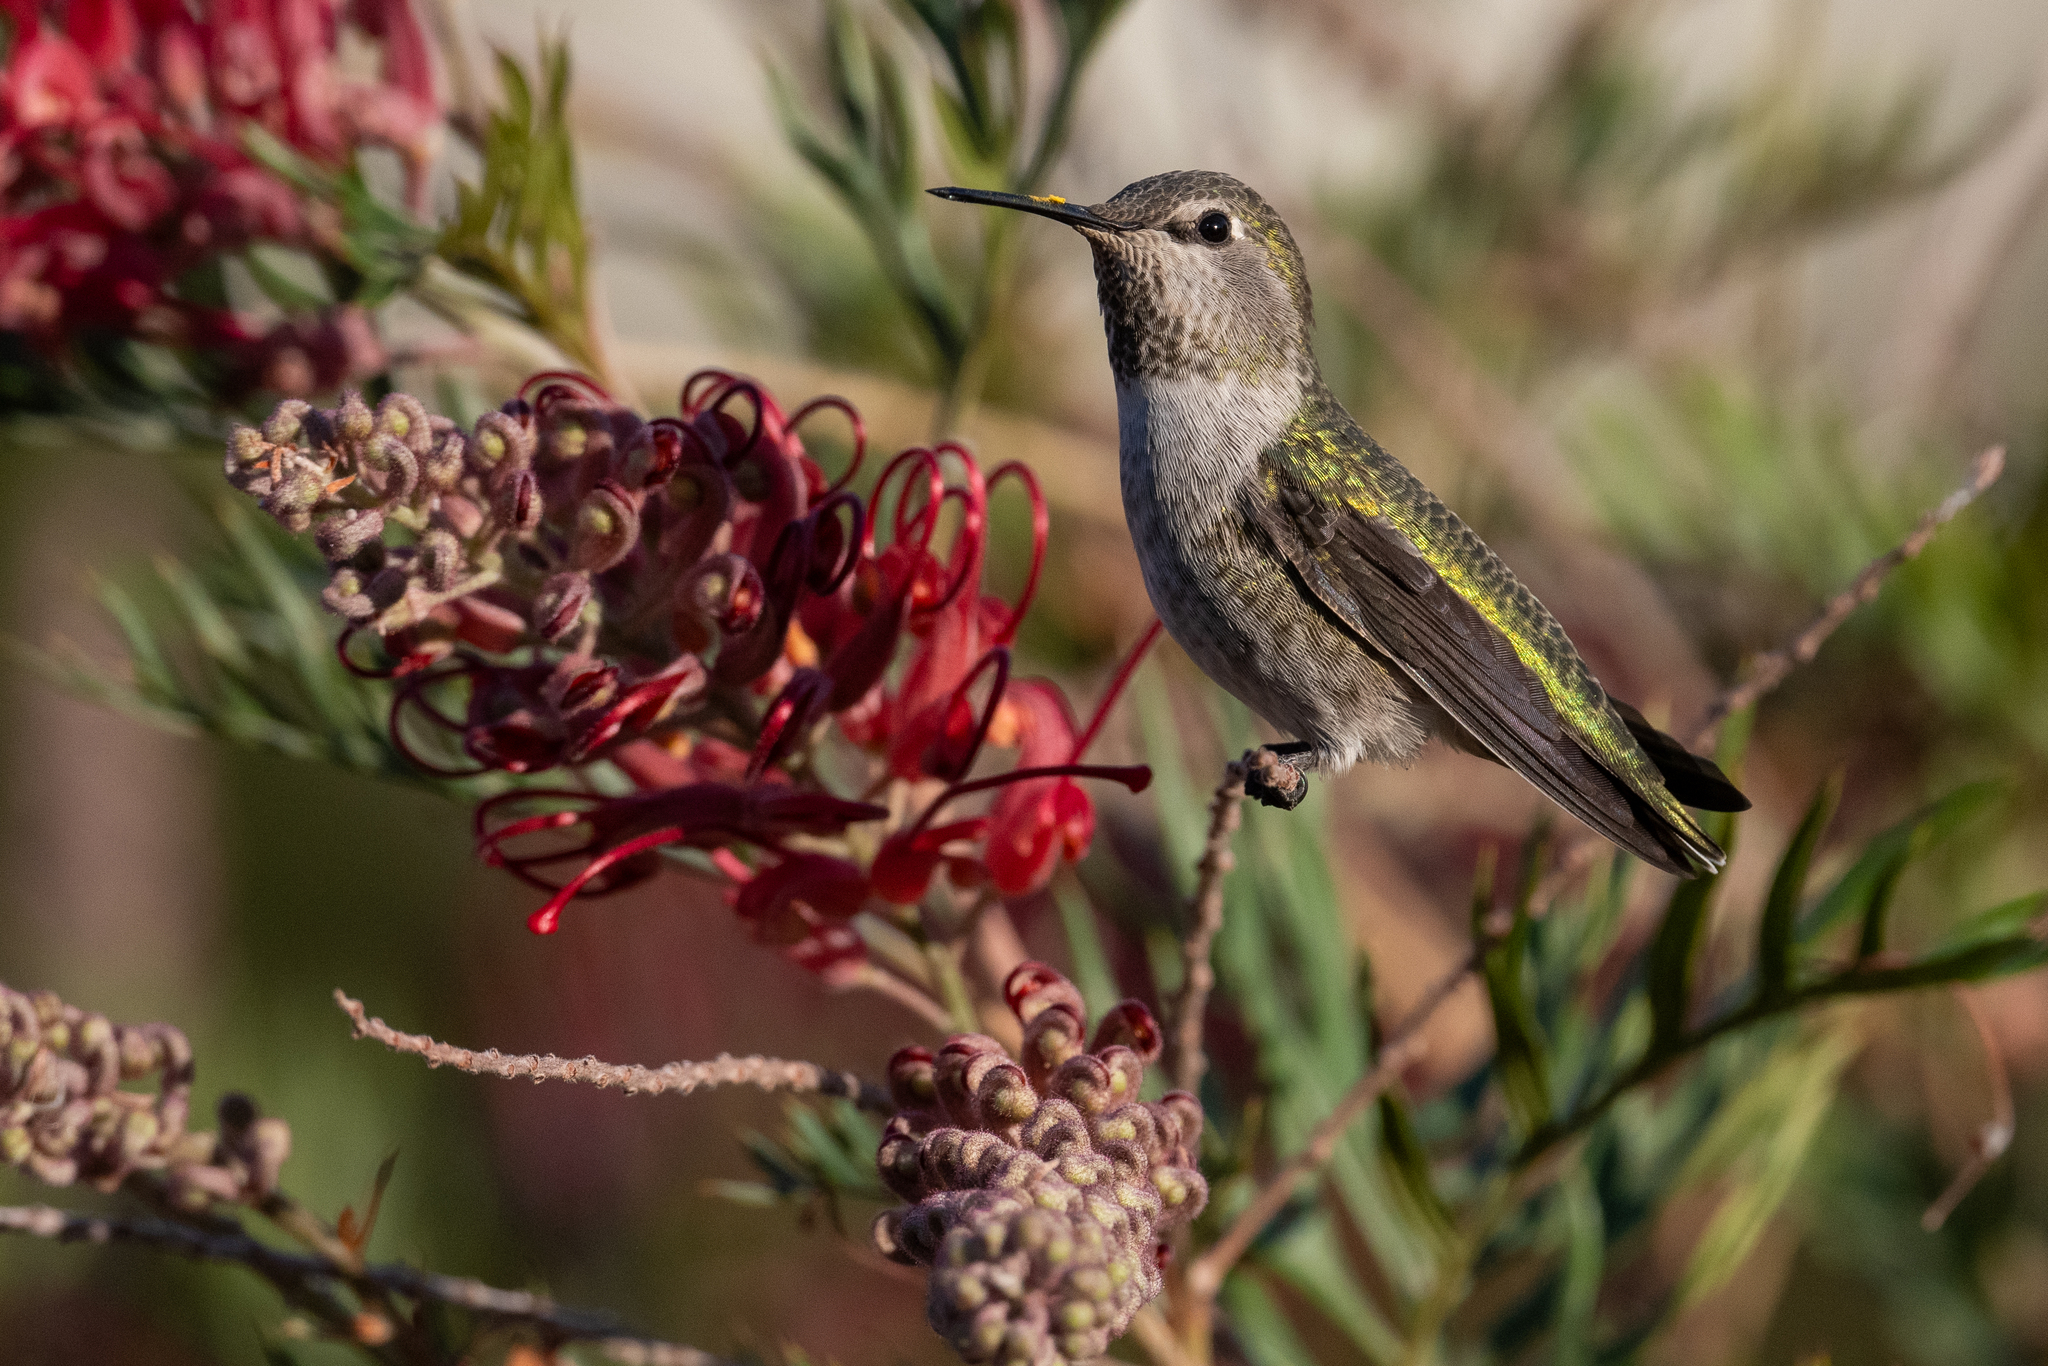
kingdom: Animalia
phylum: Chordata
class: Aves
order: Apodiformes
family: Trochilidae
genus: Calypte
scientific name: Calypte anna
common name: Anna's hummingbird
